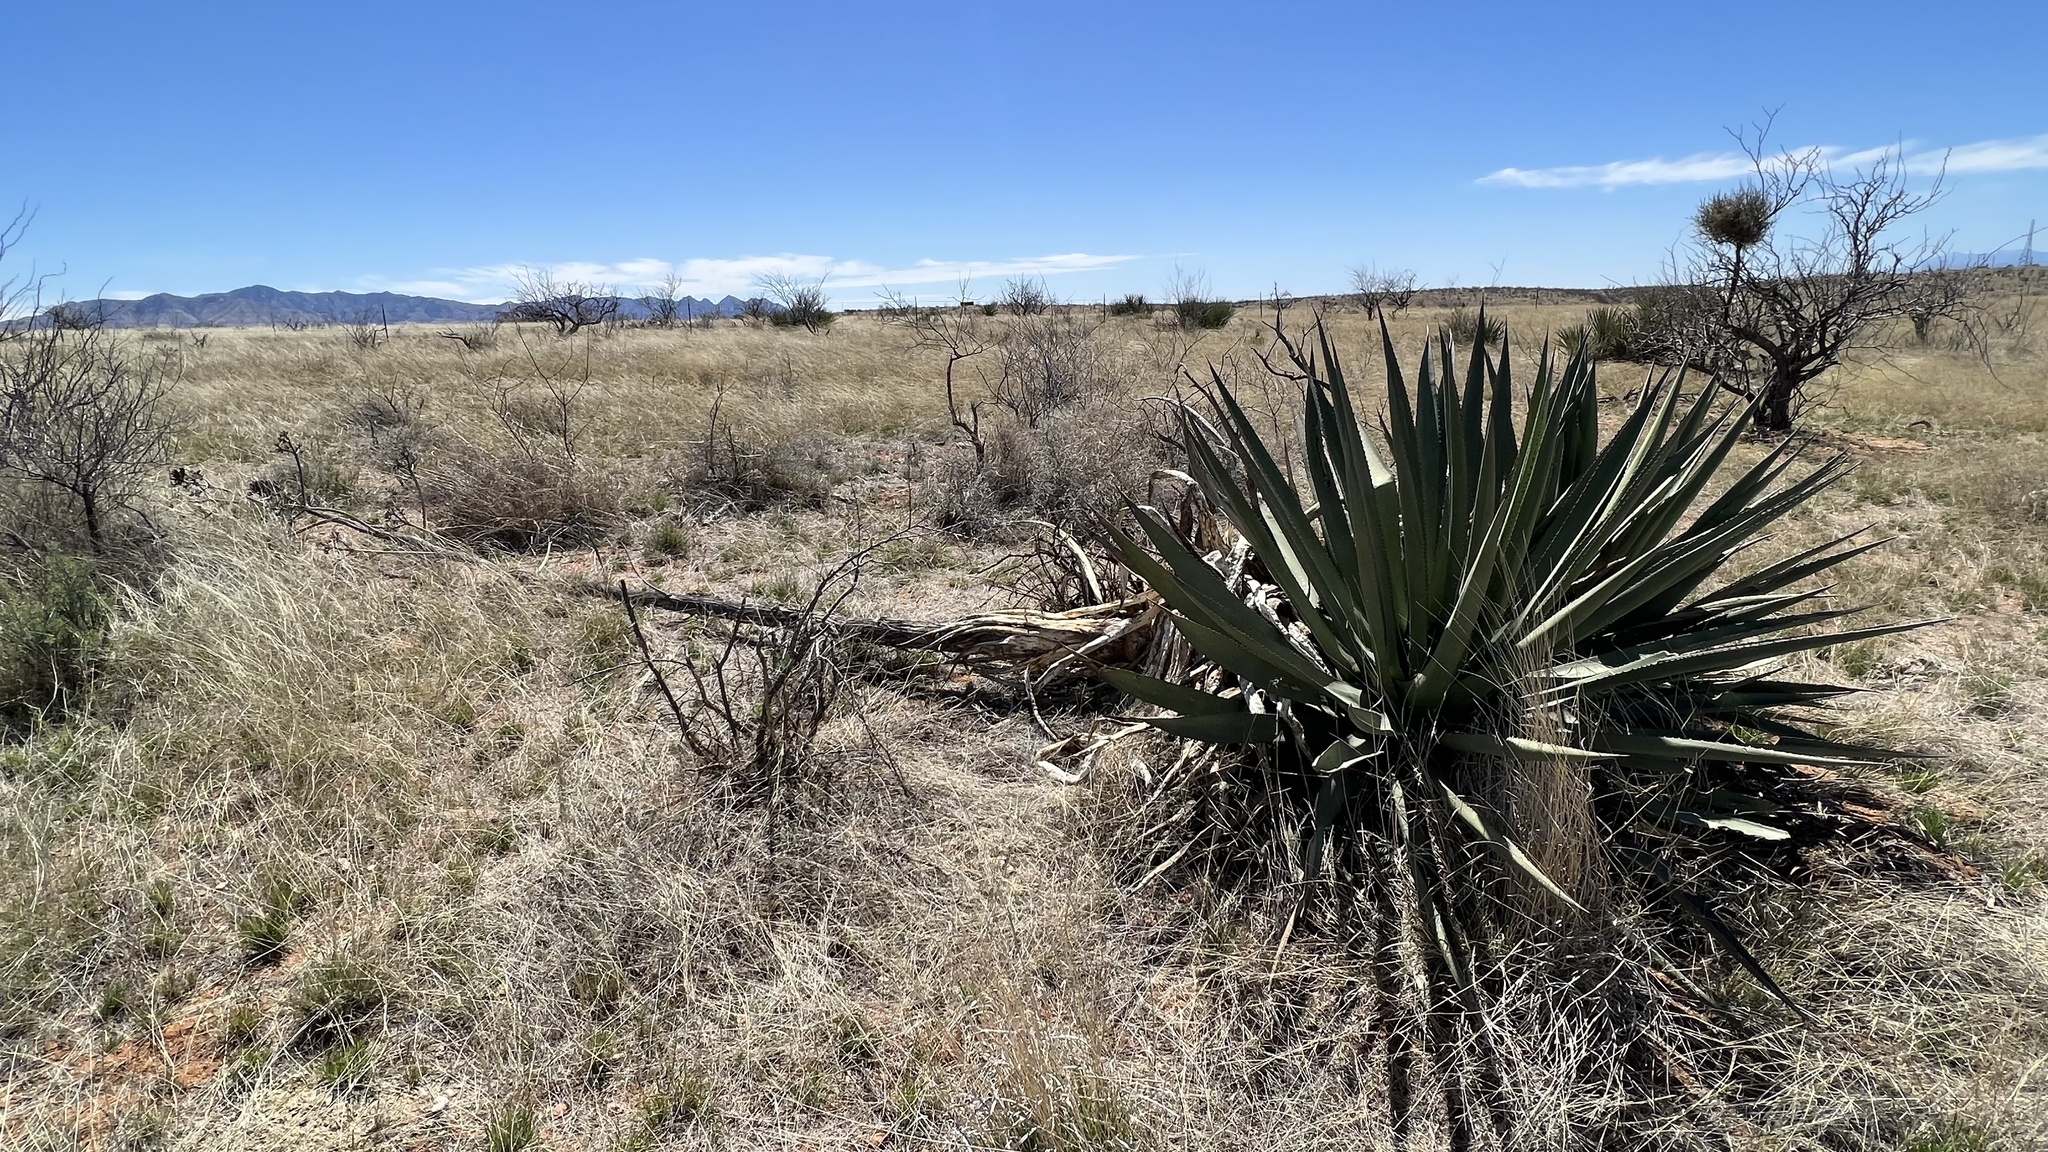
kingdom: Plantae
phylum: Tracheophyta
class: Liliopsida
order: Asparagales
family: Asparagaceae
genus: Agave
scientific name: Agave palmeri
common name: Palmer agave
